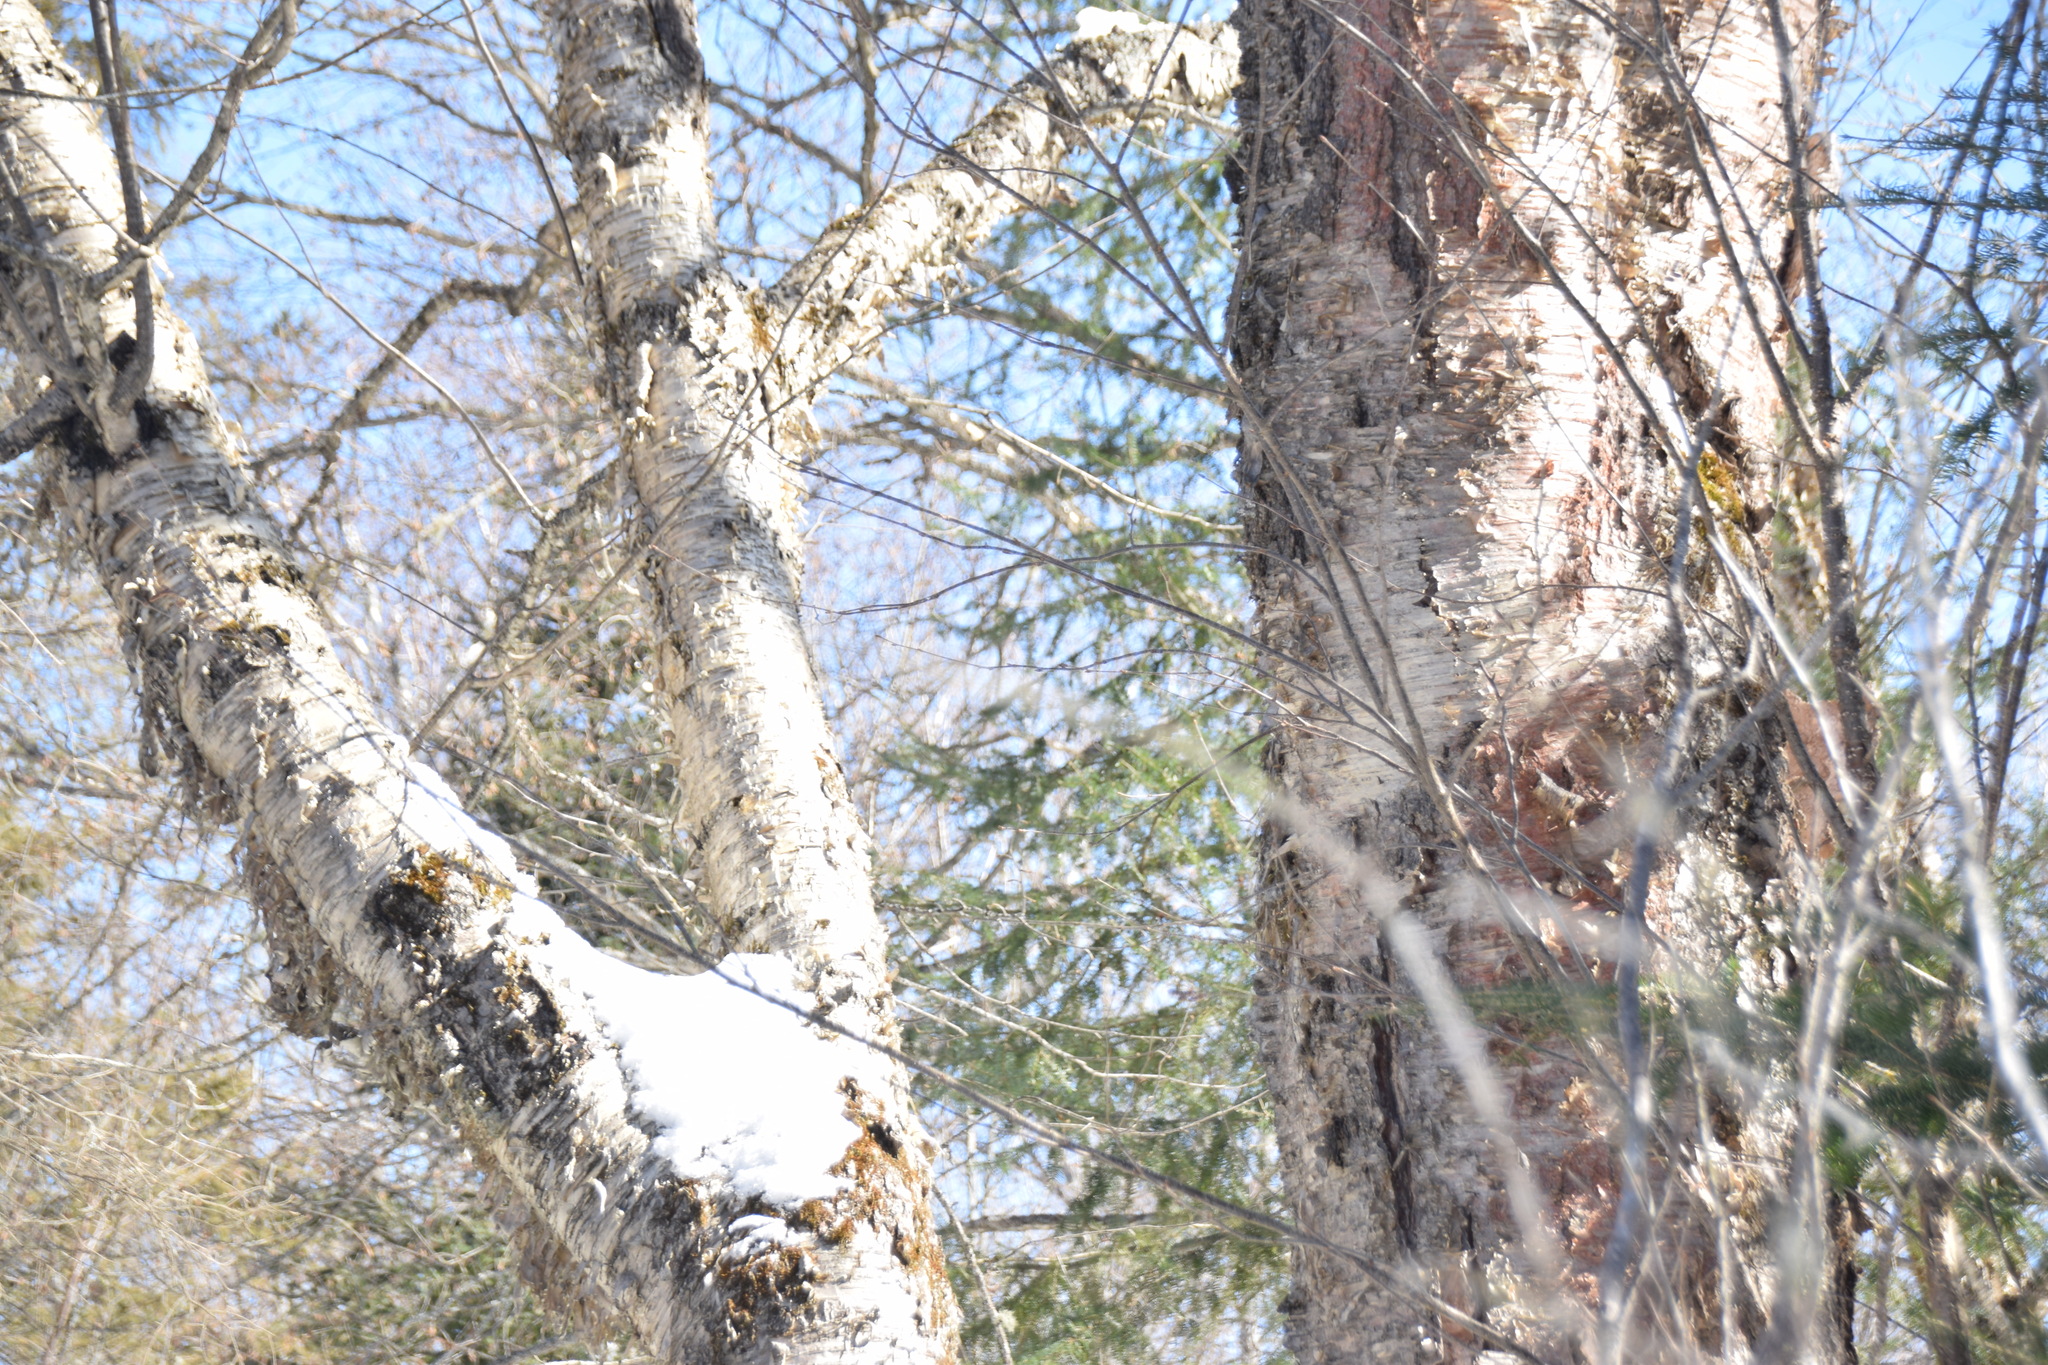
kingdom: Plantae
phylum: Tracheophyta
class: Magnoliopsida
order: Fagales
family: Betulaceae
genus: Betula
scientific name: Betula alleghaniensis
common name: Yellow birch
